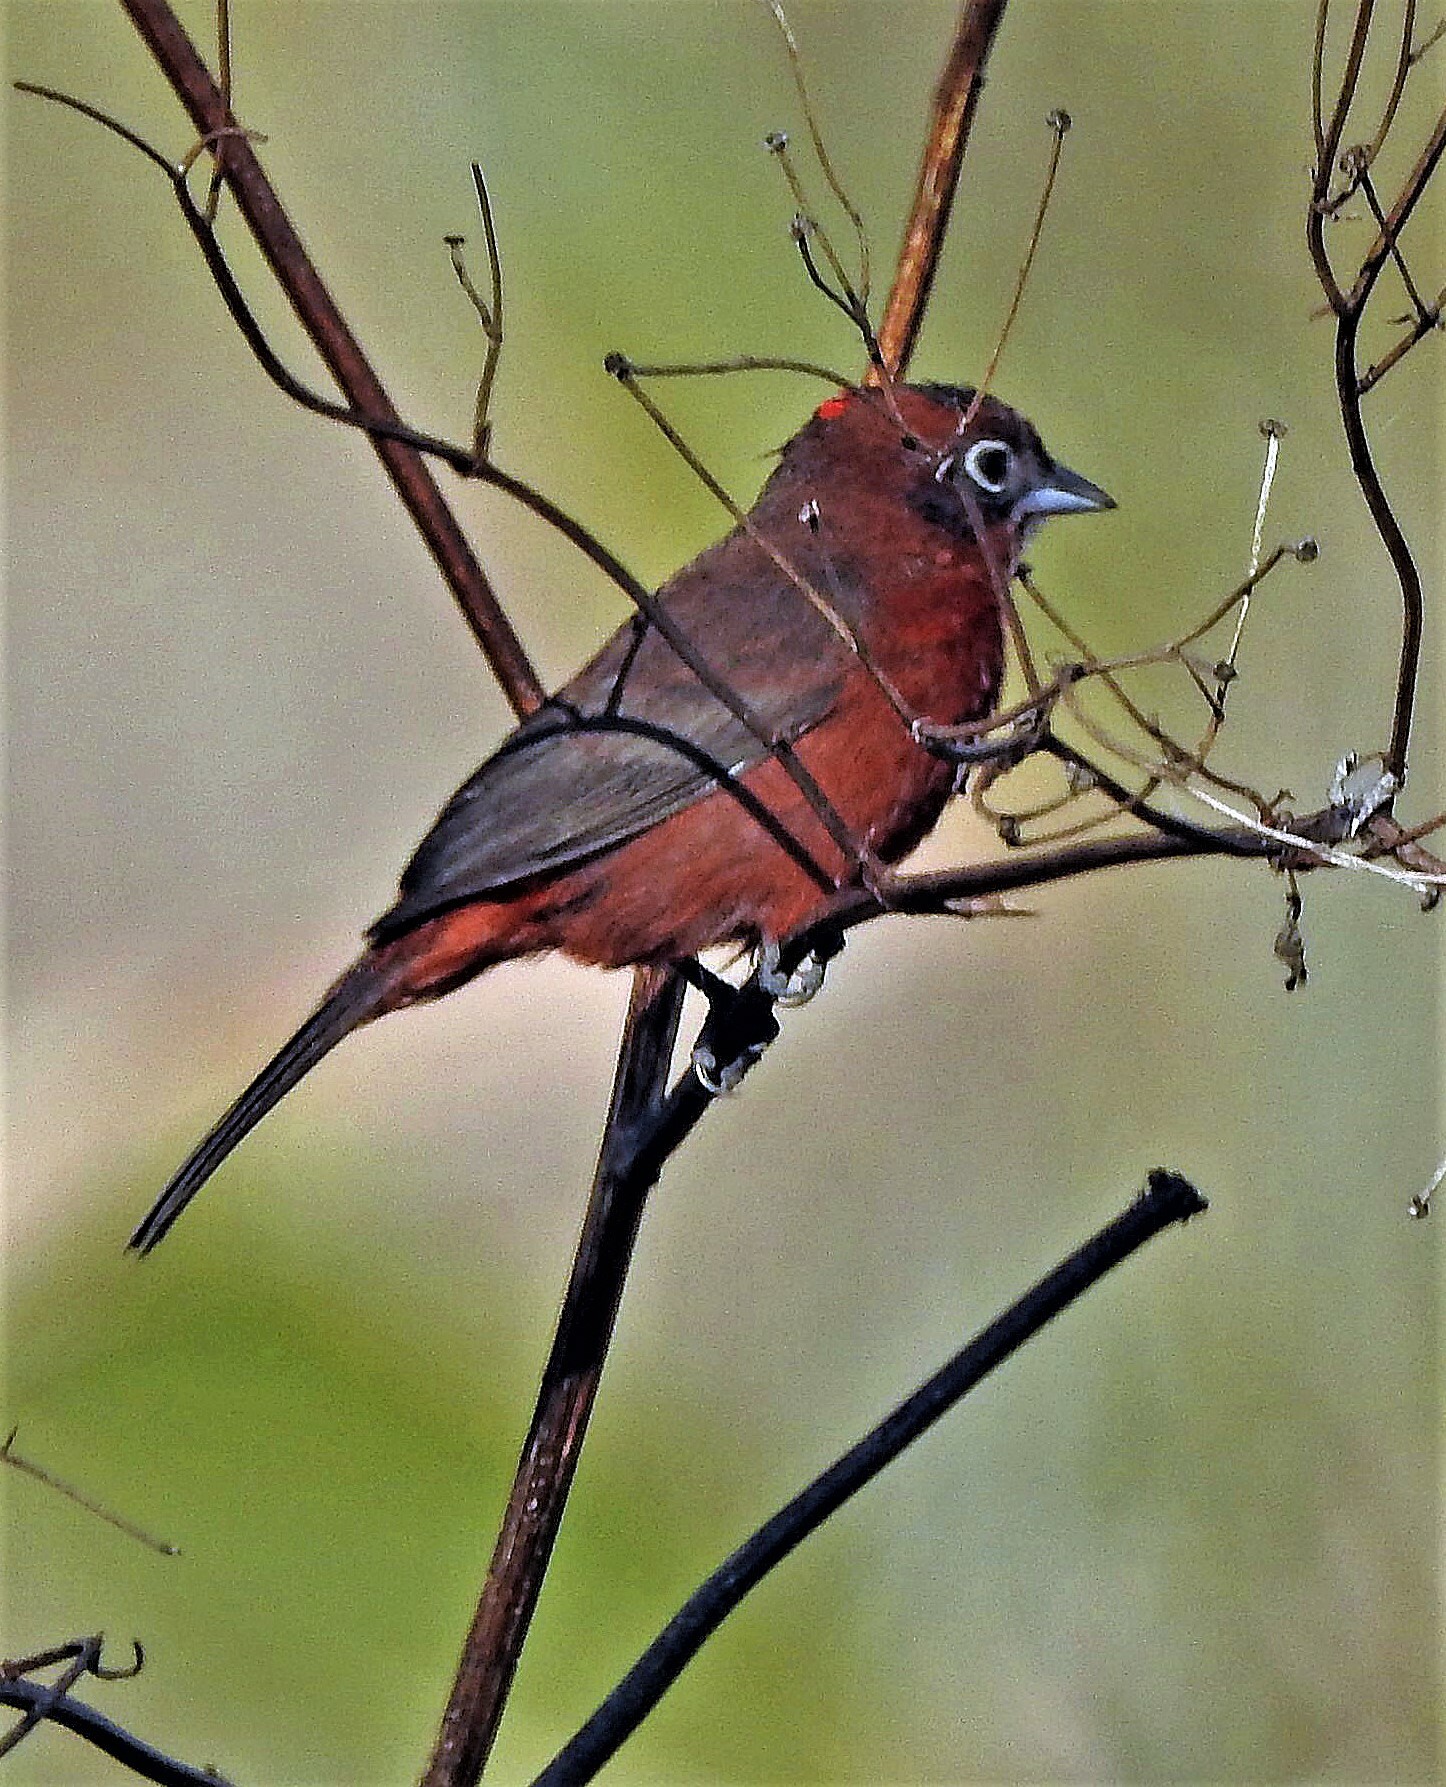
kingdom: Animalia
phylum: Chordata
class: Aves
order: Passeriformes
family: Thraupidae
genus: Coryphospingus
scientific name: Coryphospingus cucullatus
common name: Red pileated finch
